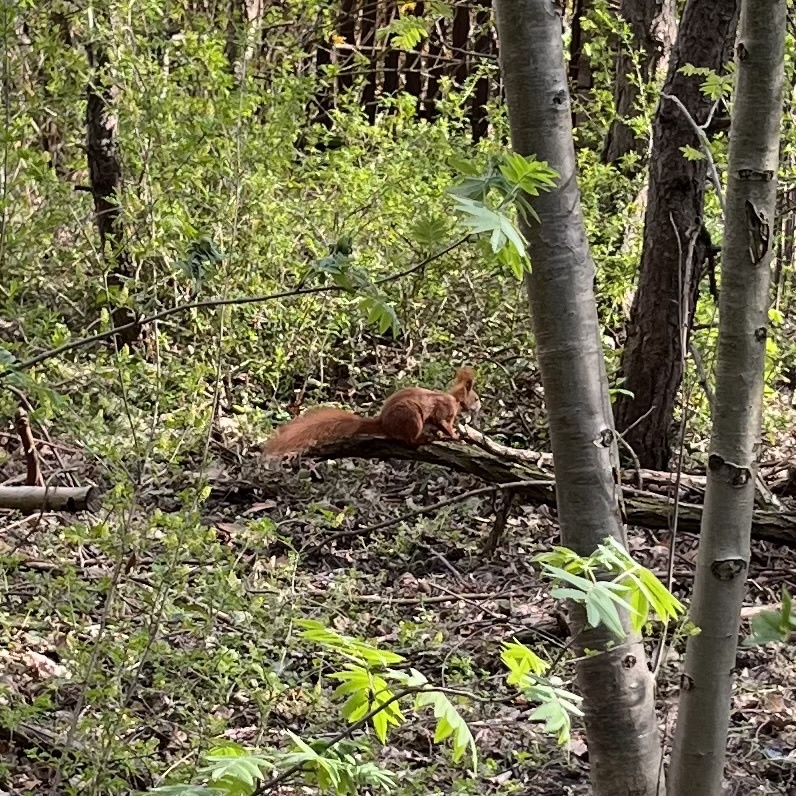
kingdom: Animalia
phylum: Chordata
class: Mammalia
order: Rodentia
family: Sciuridae
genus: Sciurus
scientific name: Sciurus vulgaris
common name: Eurasian red squirrel
